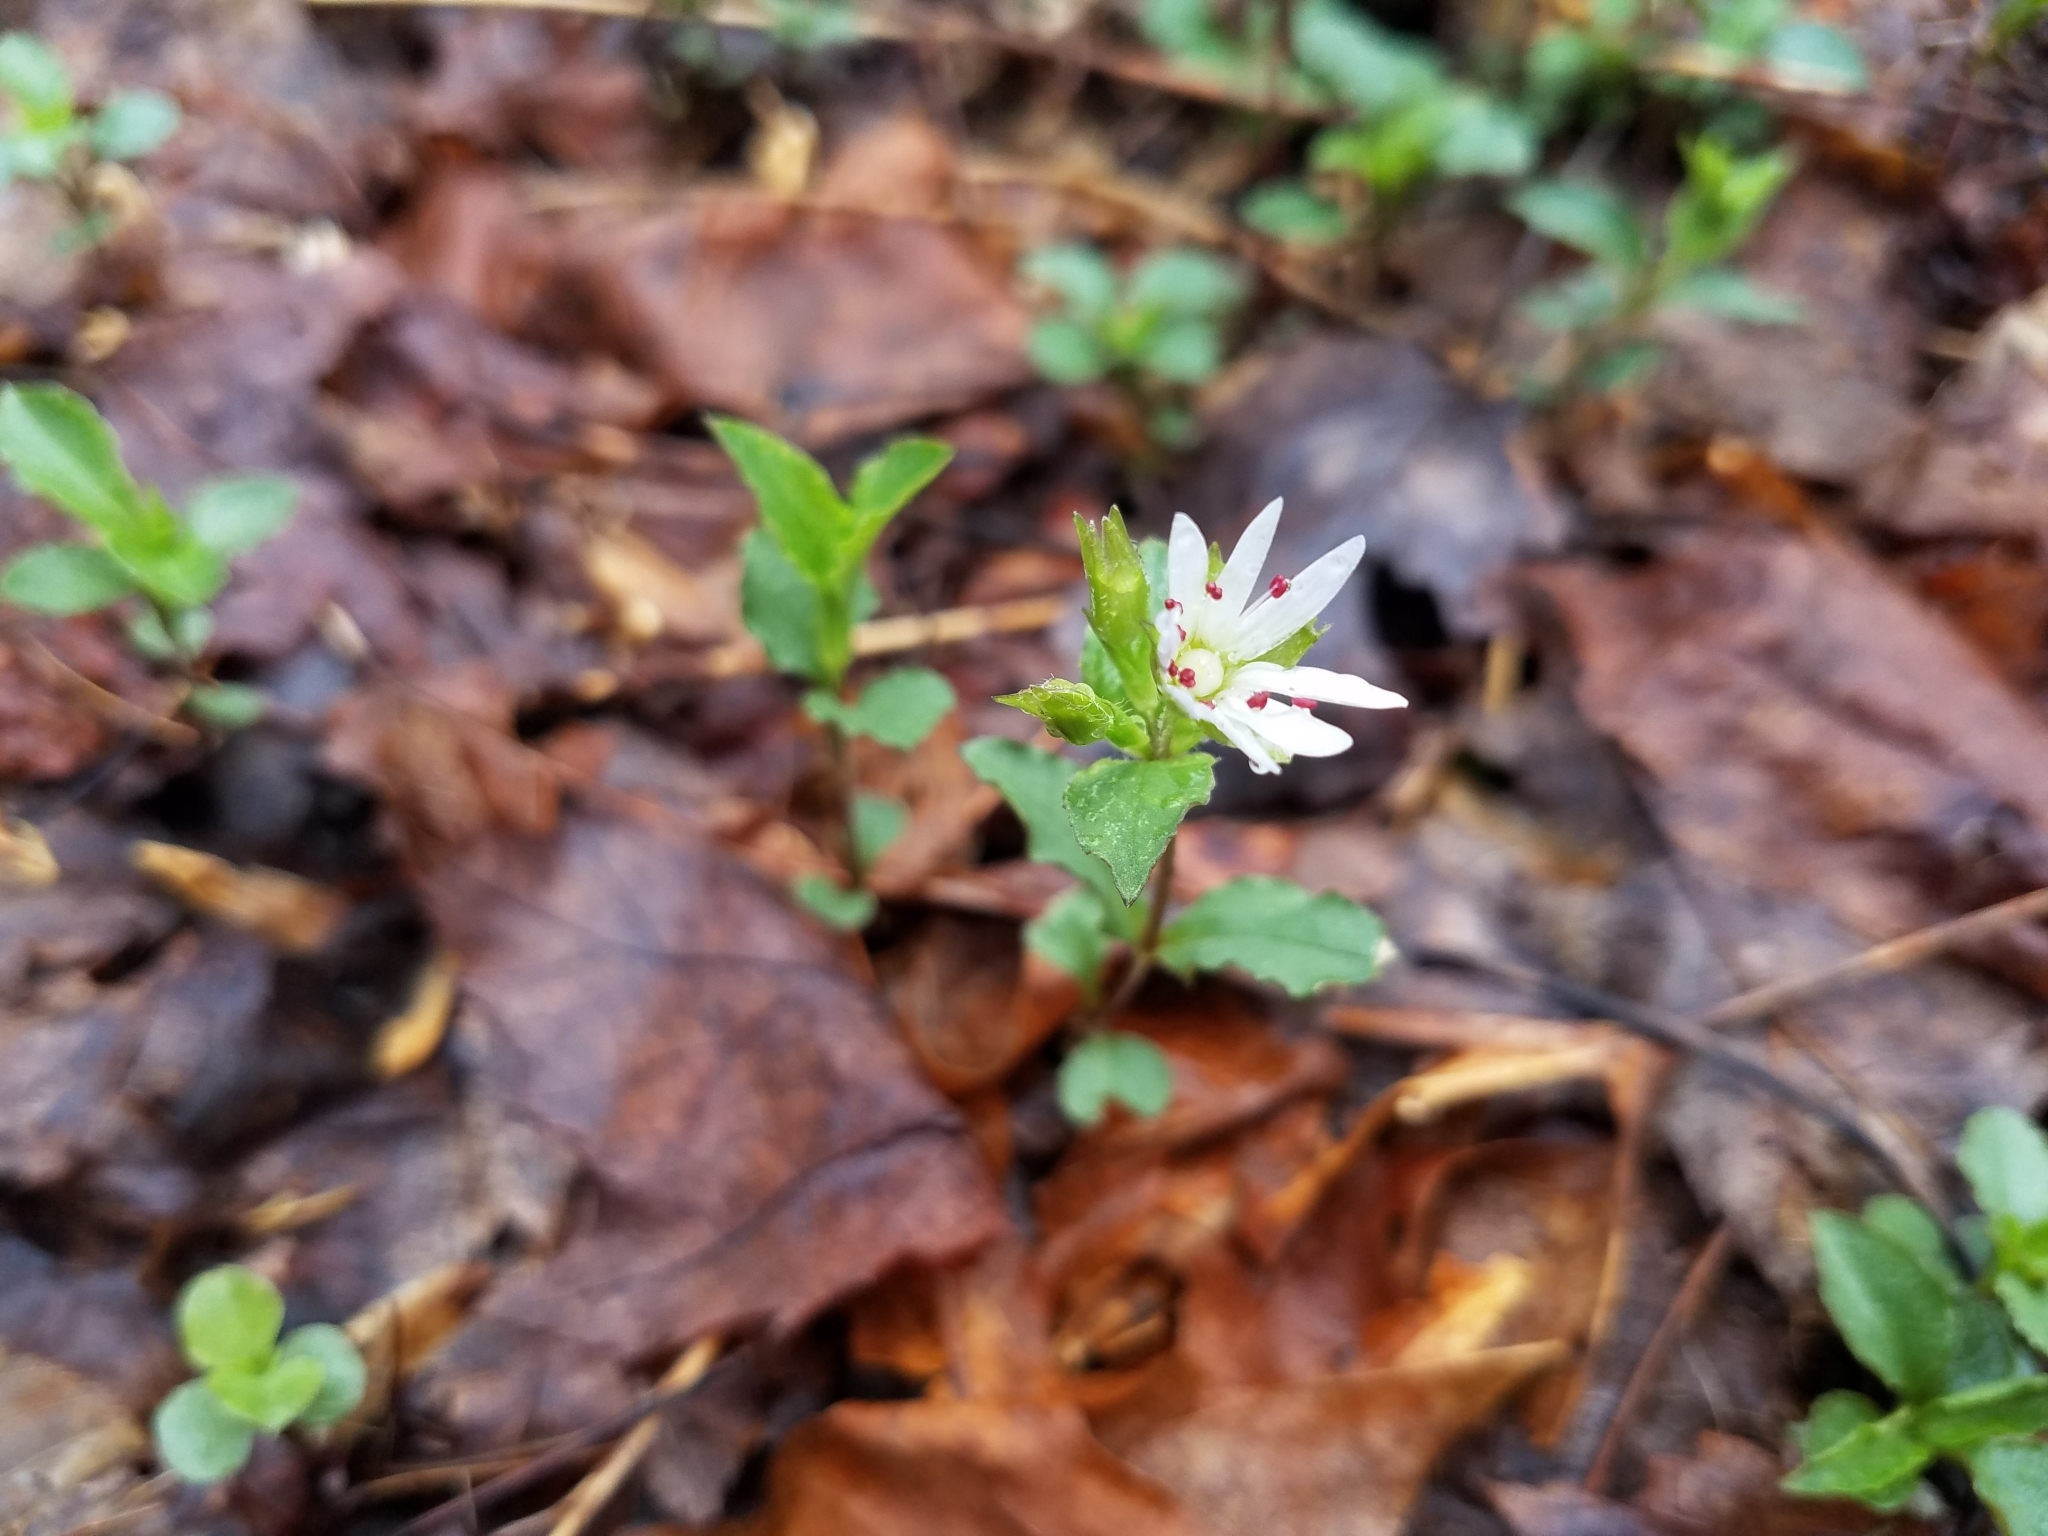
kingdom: Plantae
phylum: Tracheophyta
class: Magnoliopsida
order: Caryophyllales
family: Caryophyllaceae
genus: Stellaria
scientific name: Stellaria pubera
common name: Star chickweed
